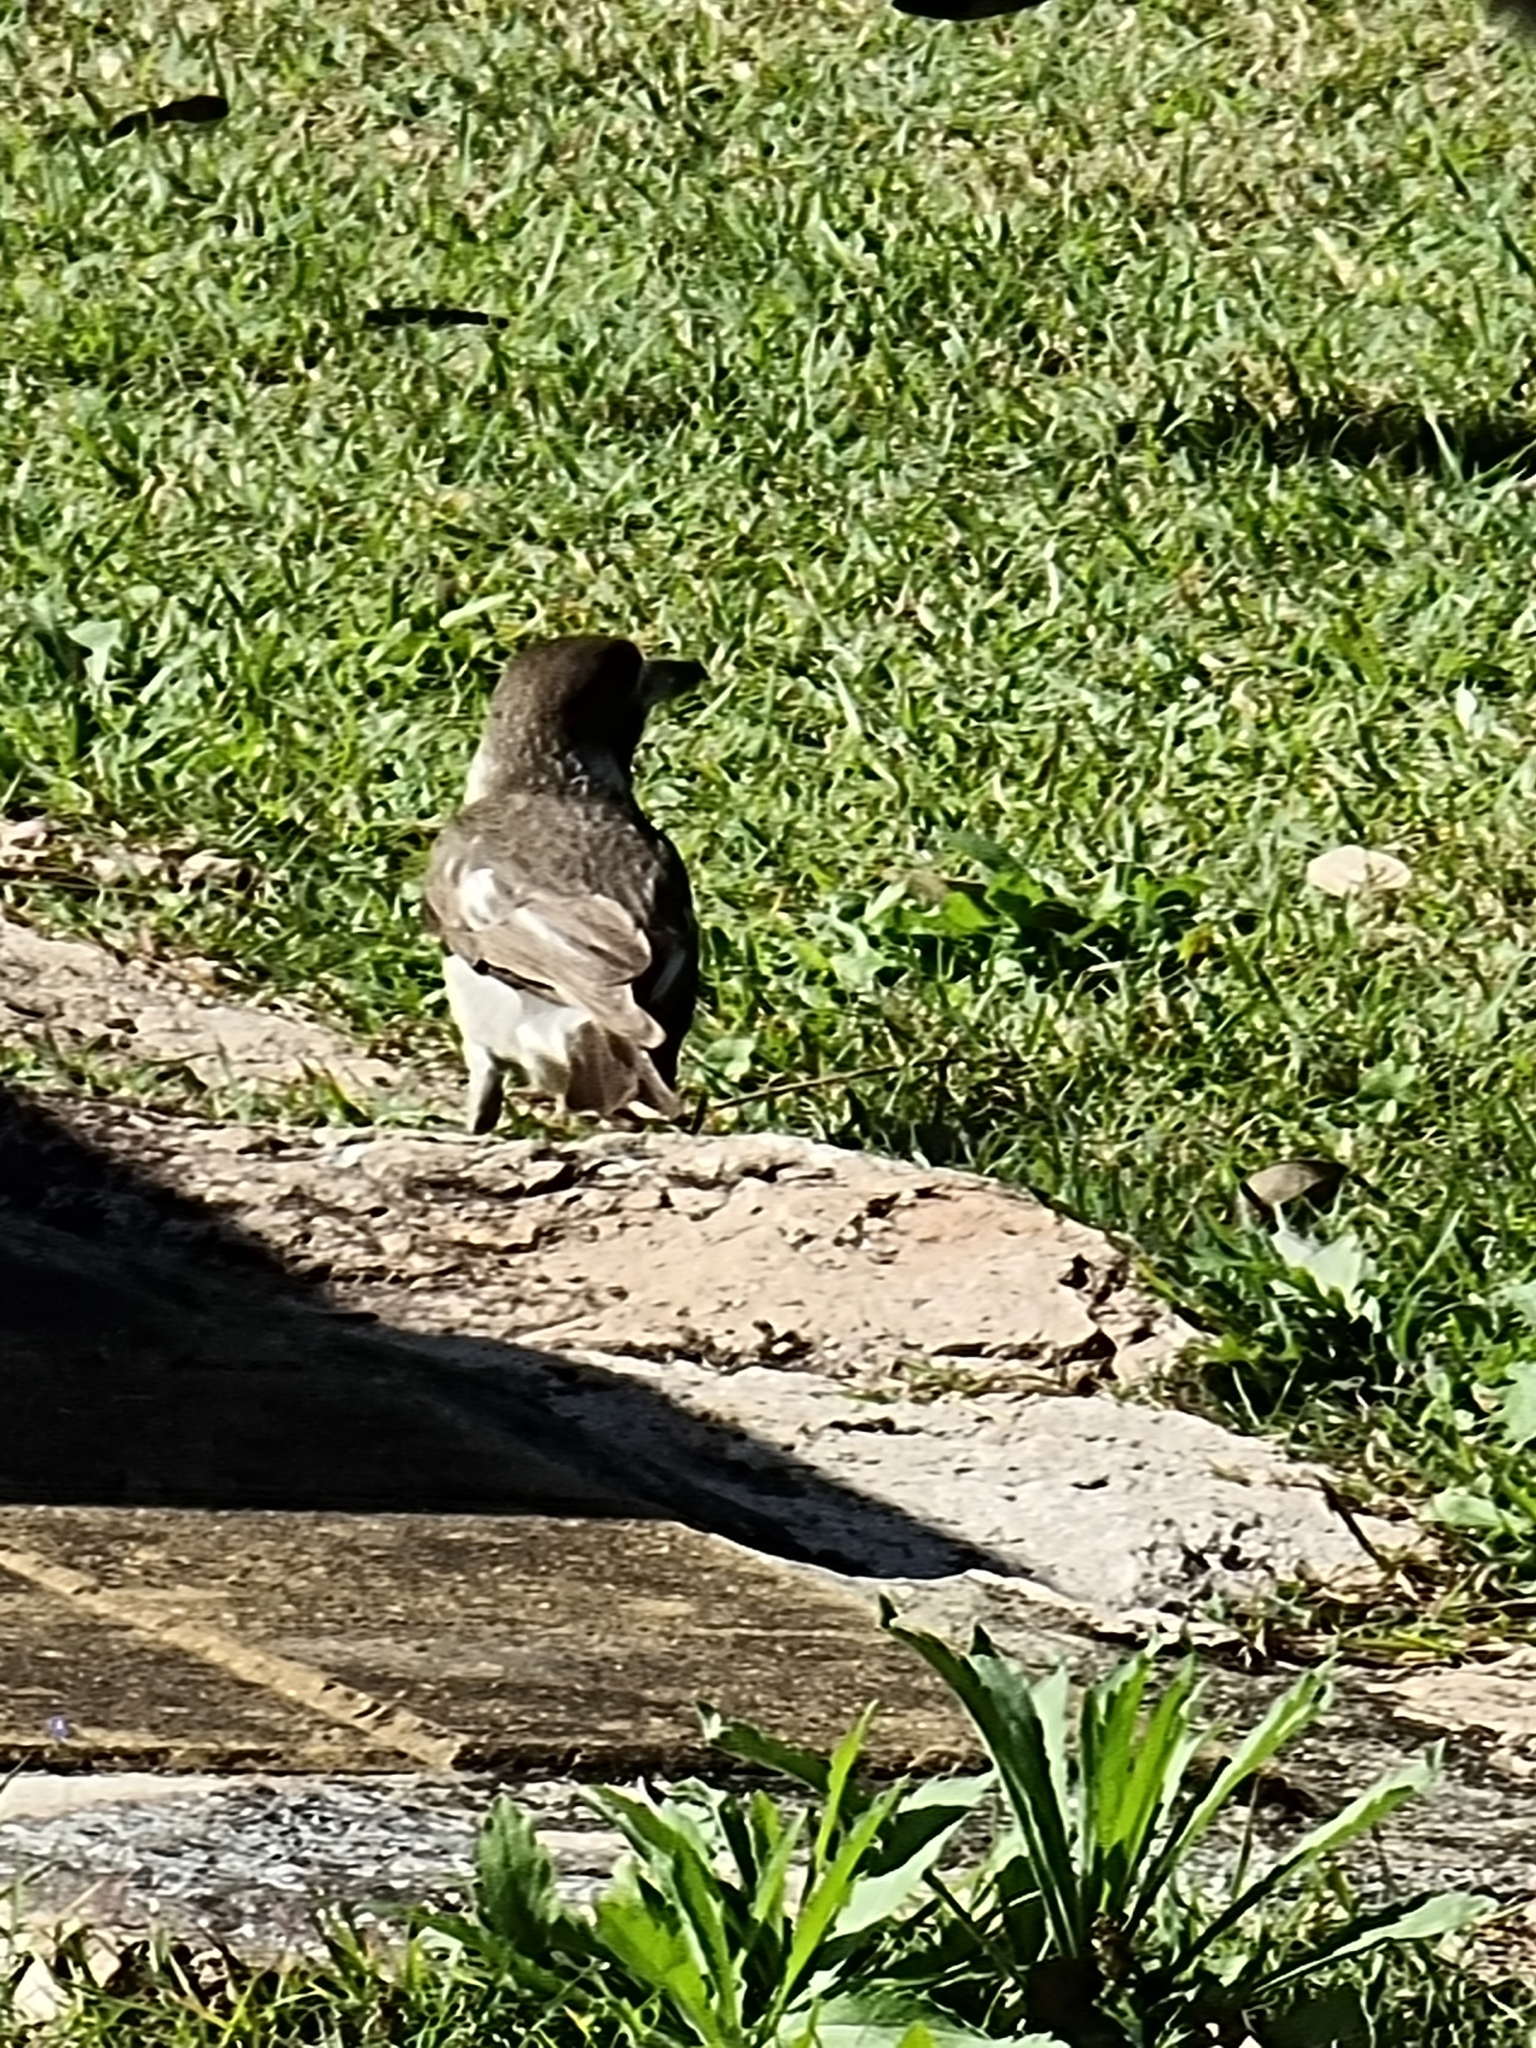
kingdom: Animalia
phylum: Chordata
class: Aves
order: Passeriformes
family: Cracticidae
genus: Cracticus
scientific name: Cracticus torquatus
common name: Grey butcherbird
